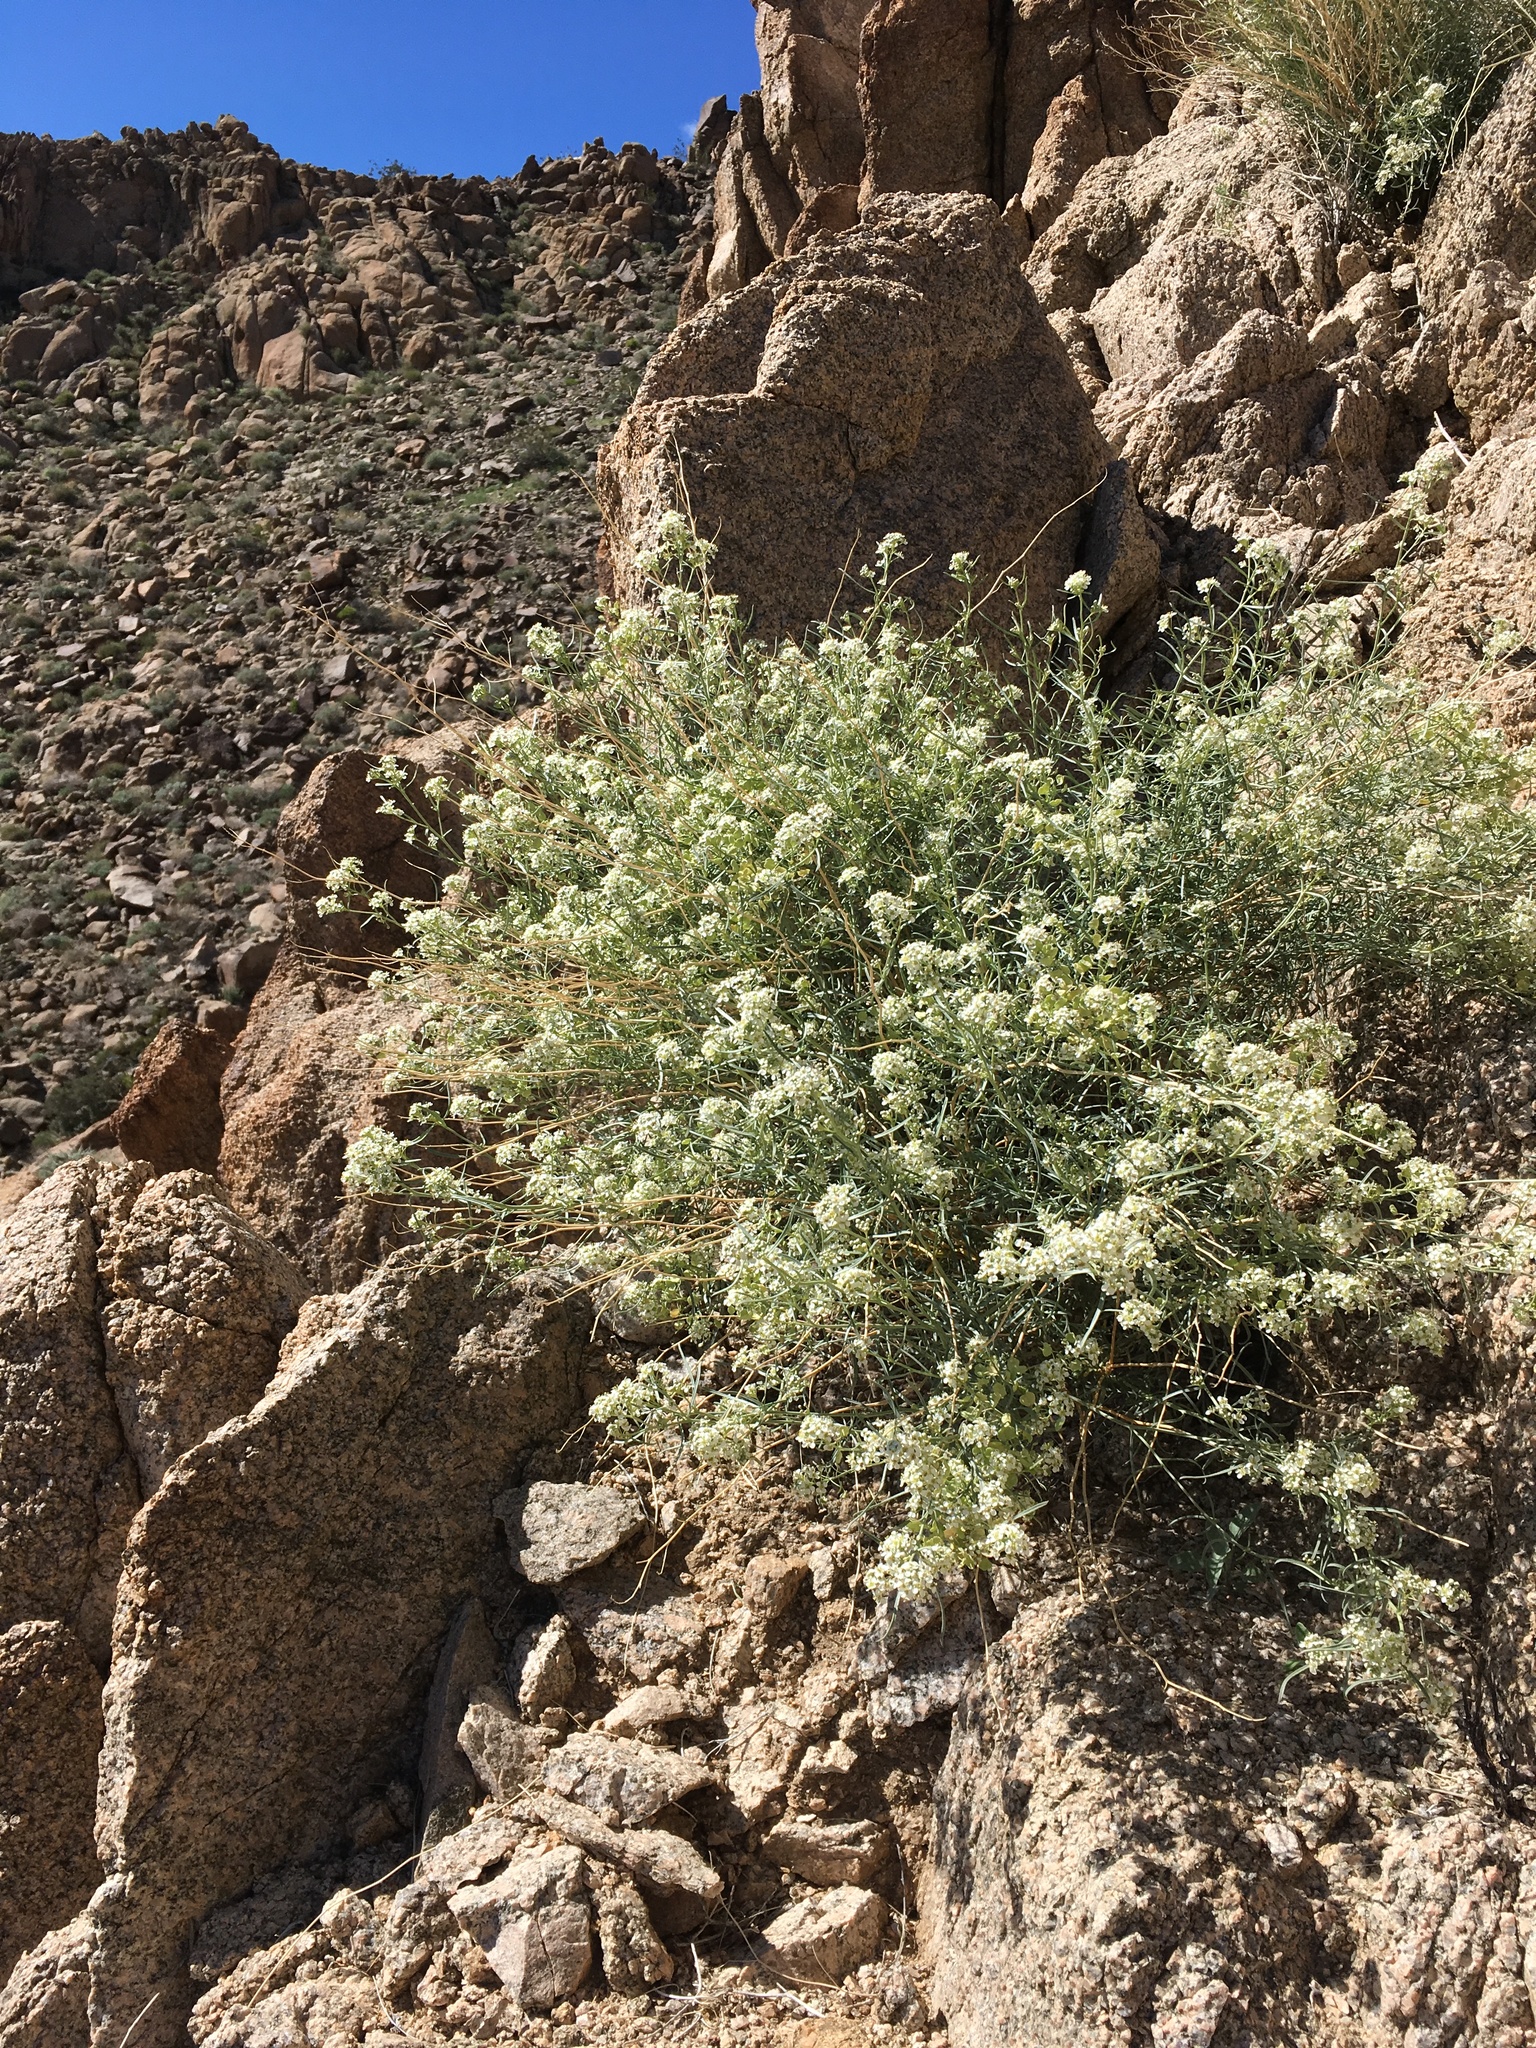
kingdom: Plantae
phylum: Tracheophyta
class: Magnoliopsida
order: Brassicales
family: Brassicaceae
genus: Lepidium
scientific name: Lepidium fremontii
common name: Fremont's pepperwort
